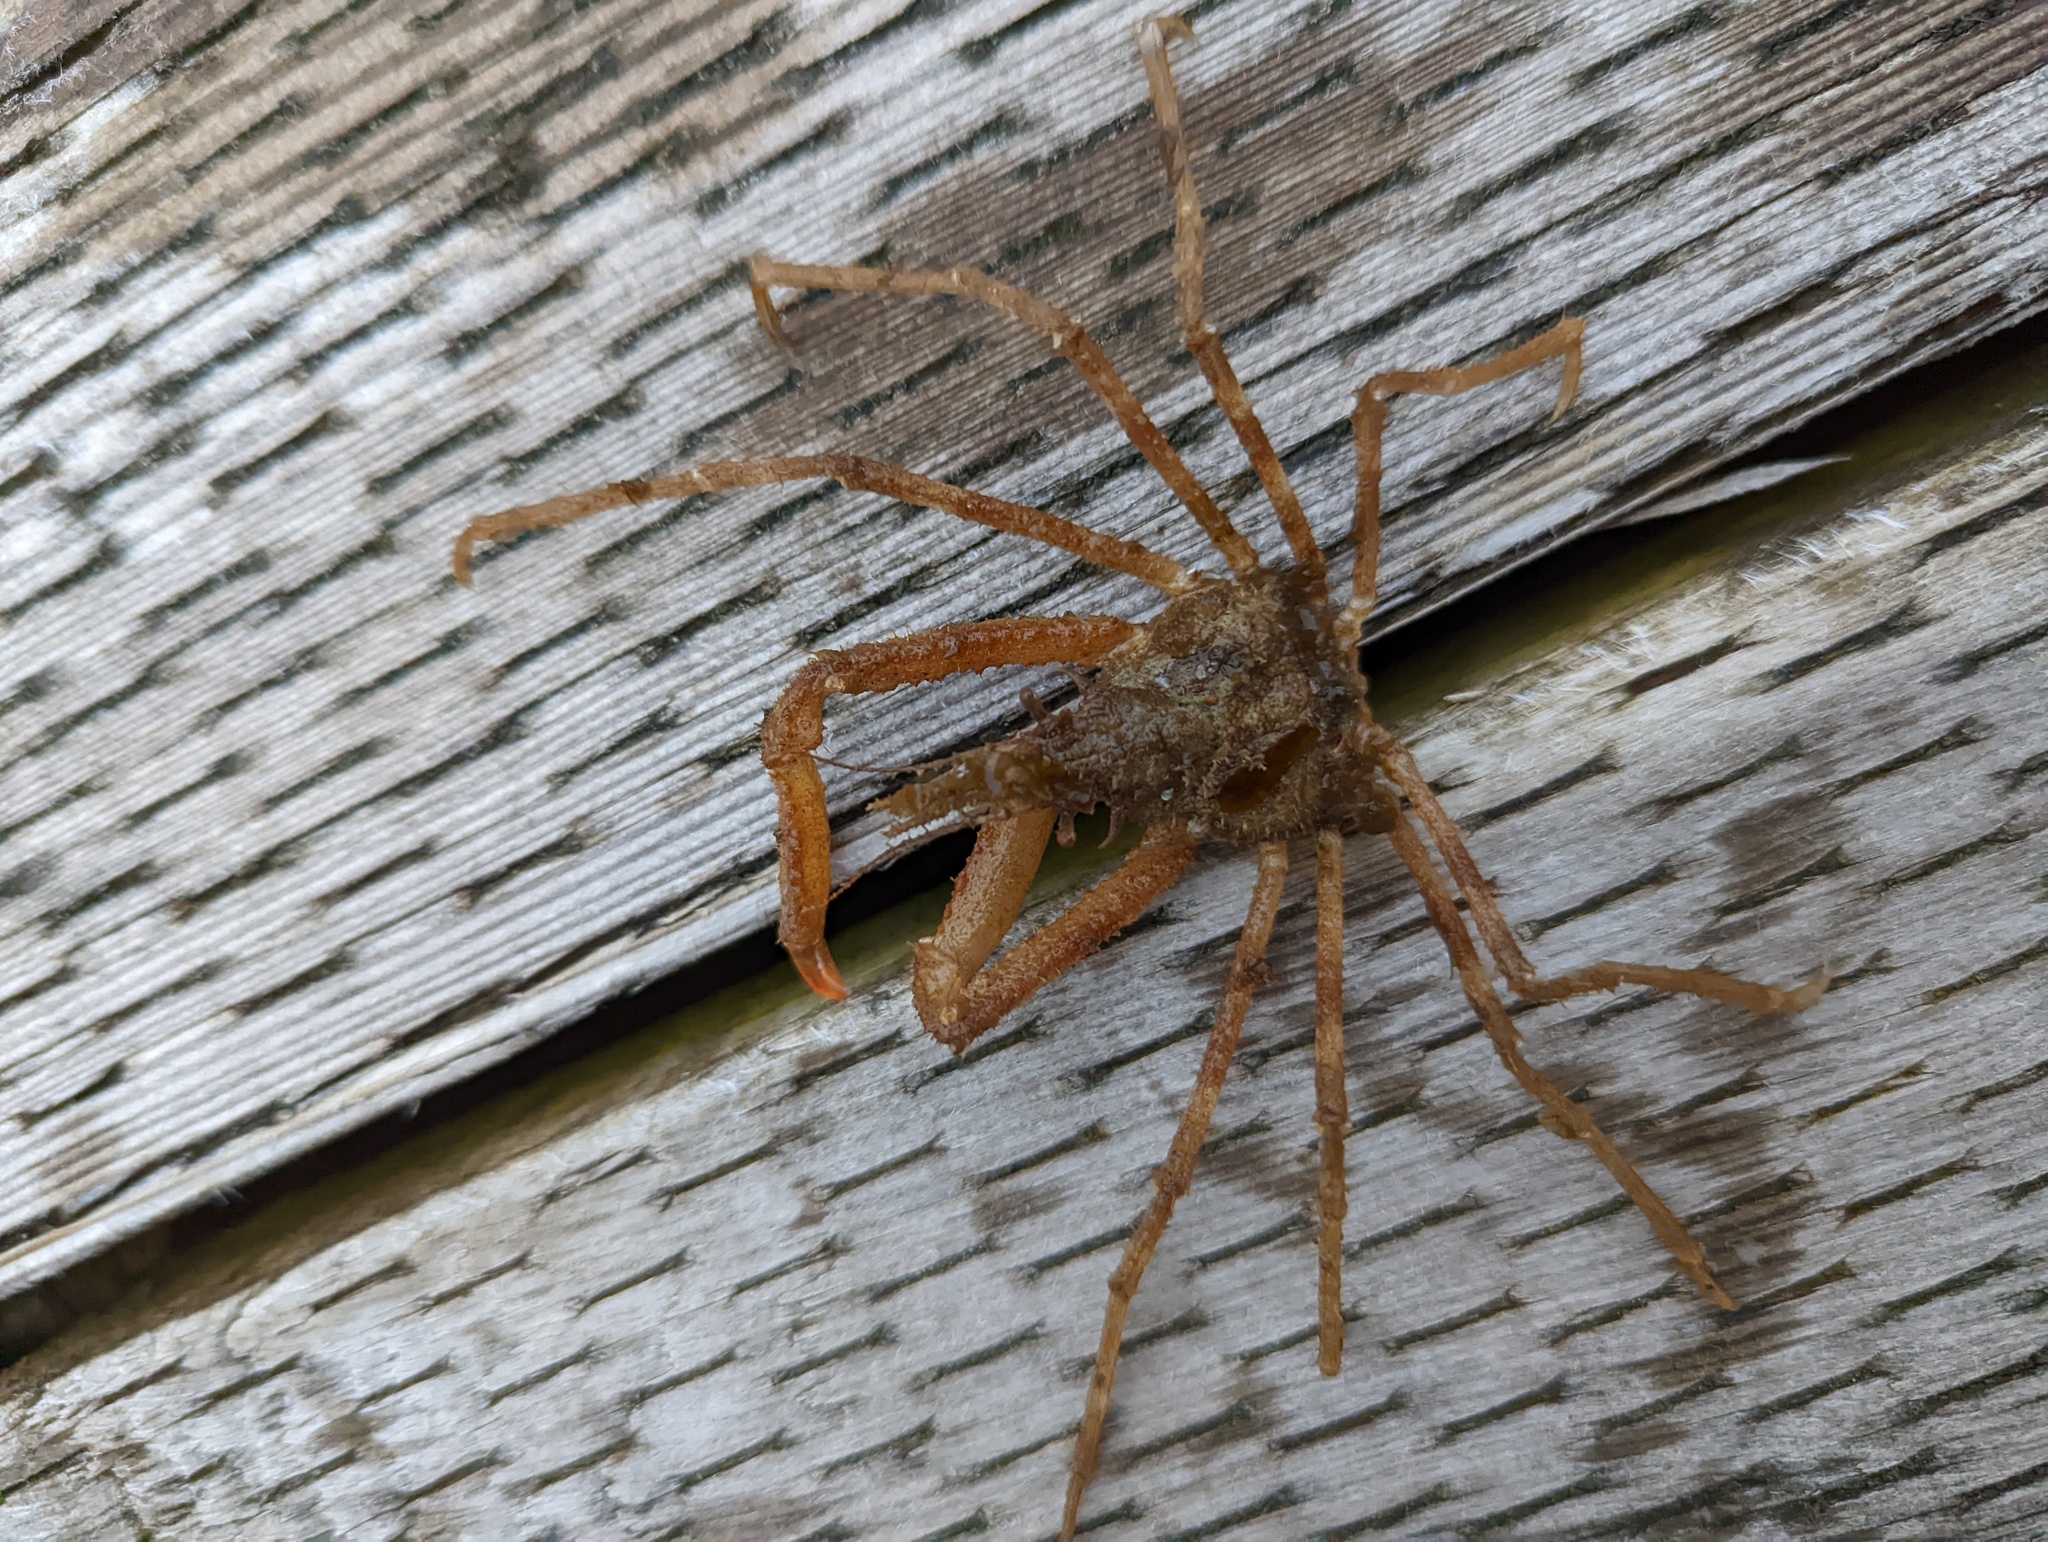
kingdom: Animalia
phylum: Arthropoda
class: Malacostraca
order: Decapoda
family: Oregoniidae
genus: Oregonia
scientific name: Oregonia gracilis
